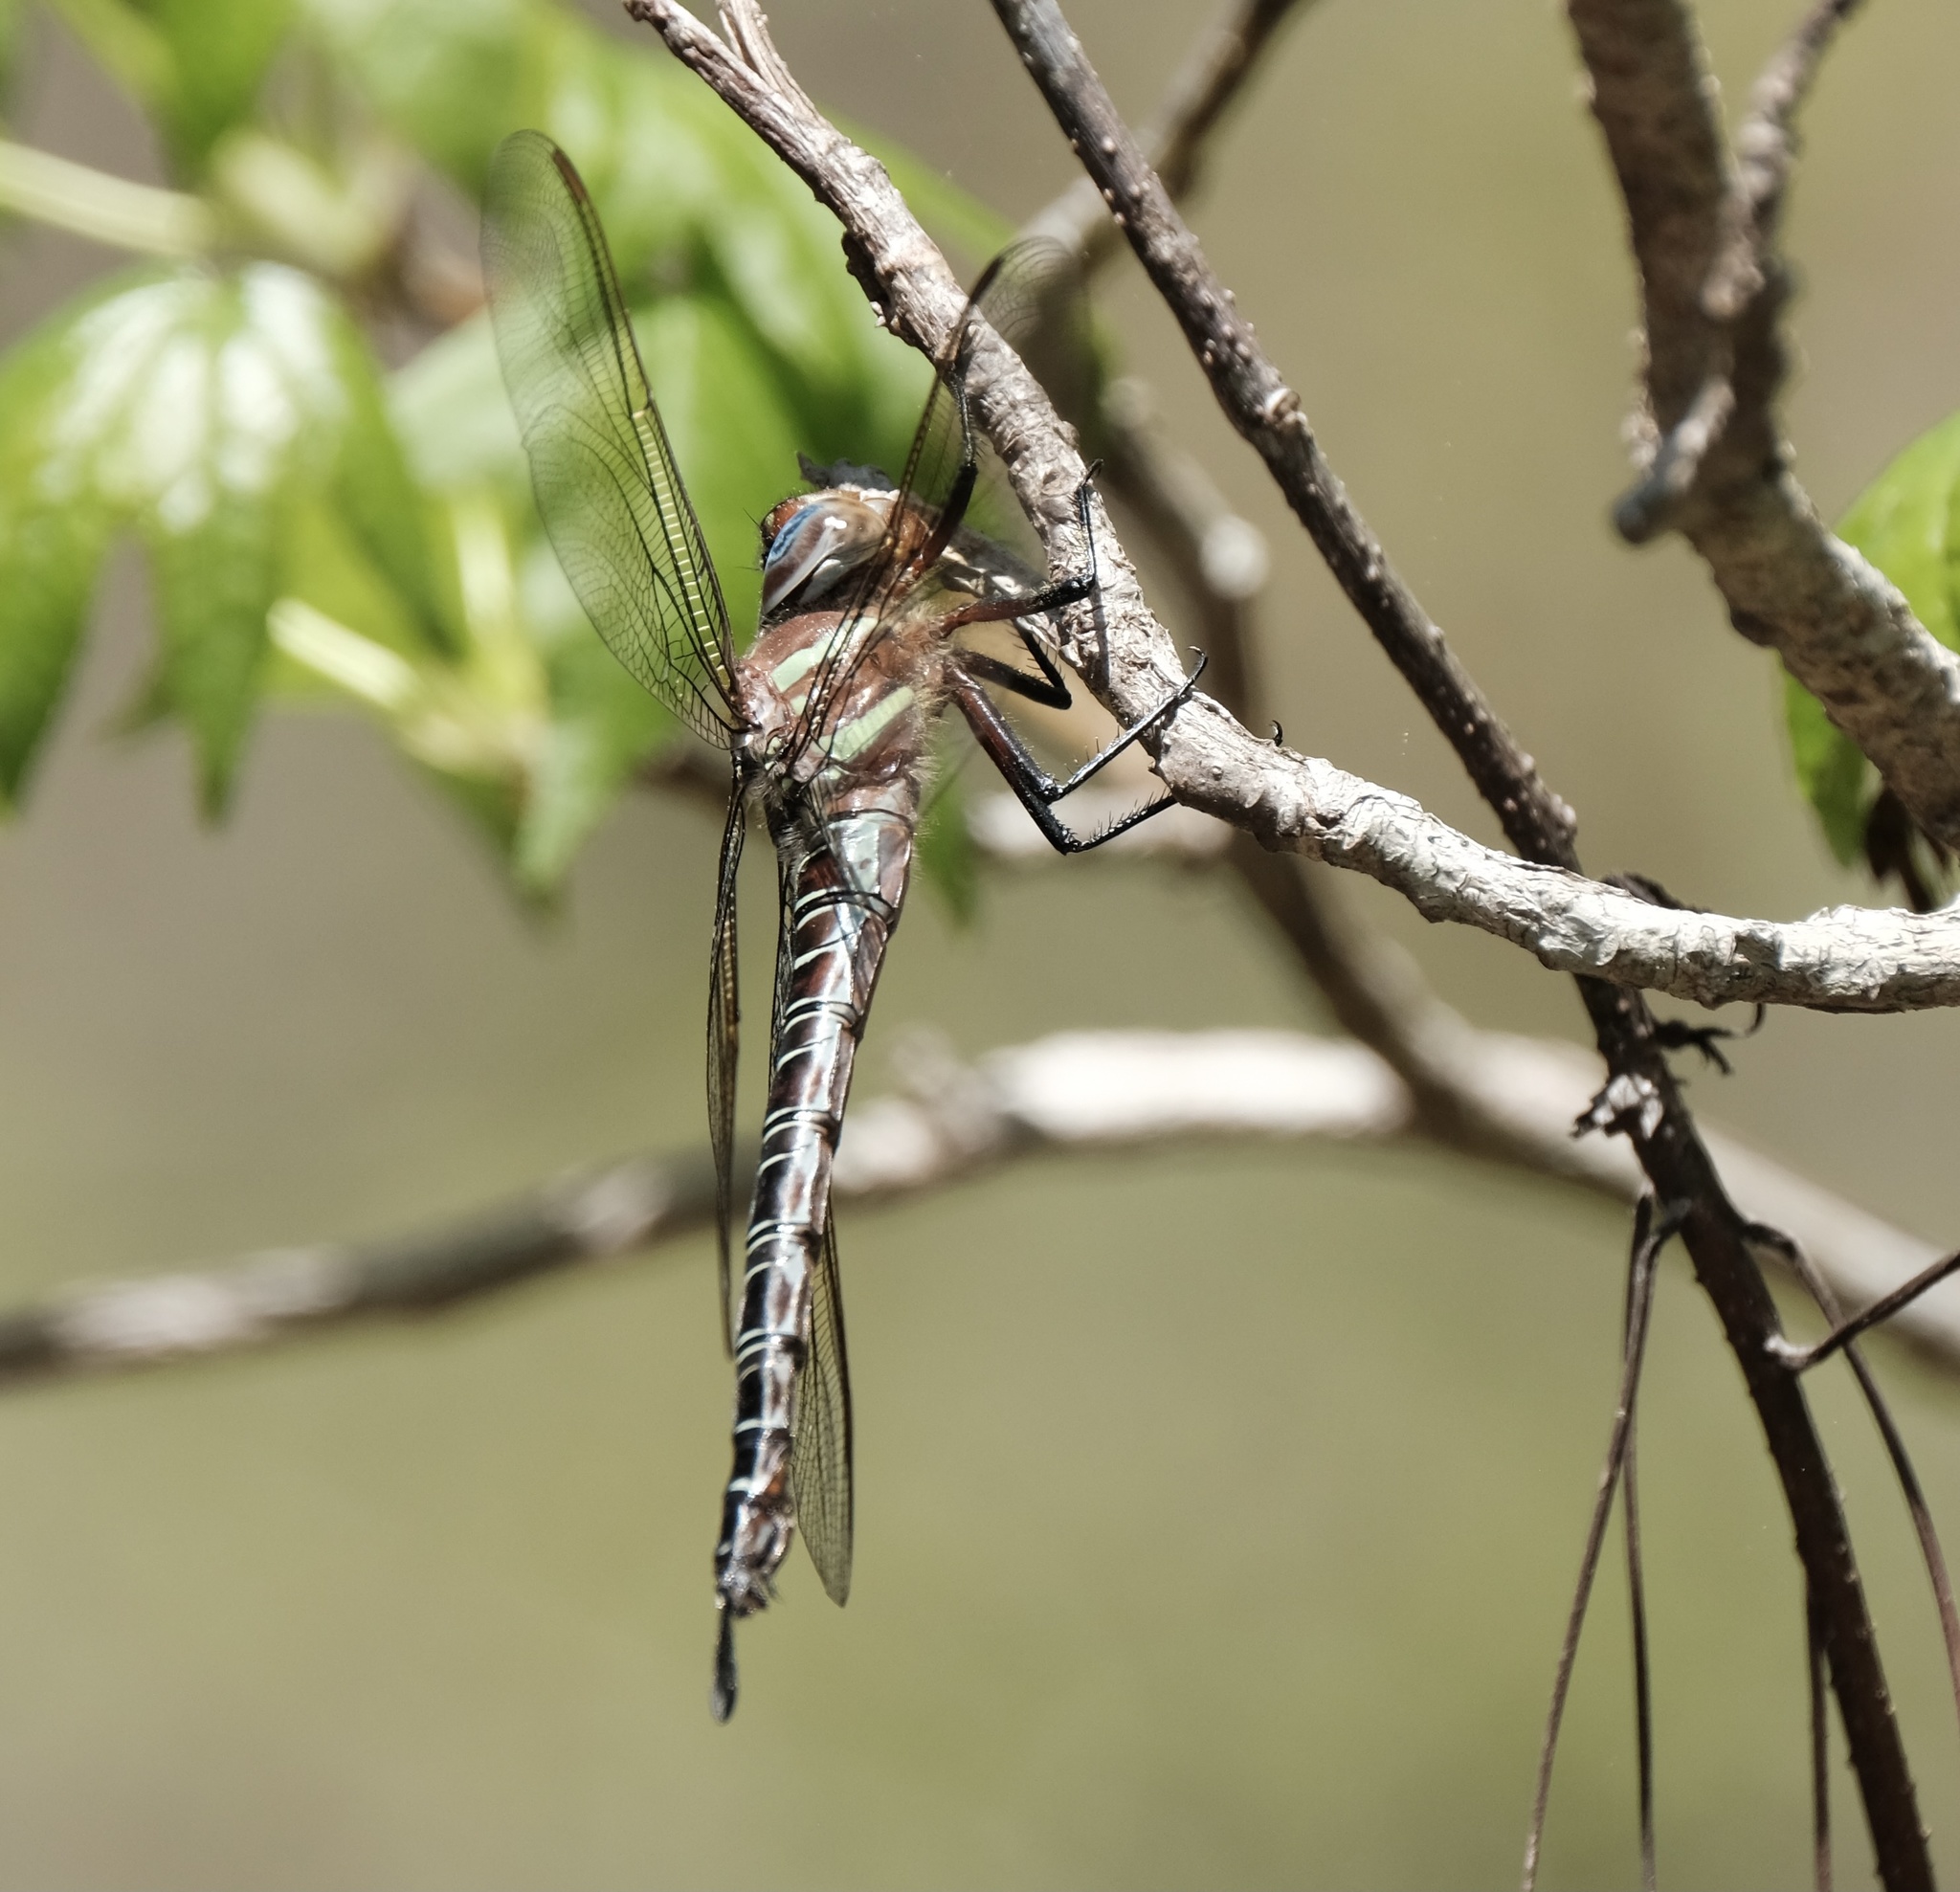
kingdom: Animalia
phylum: Arthropoda
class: Insecta
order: Odonata
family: Aeshnidae
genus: Epiaeschna
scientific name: Epiaeschna heros
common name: Swamp darner
